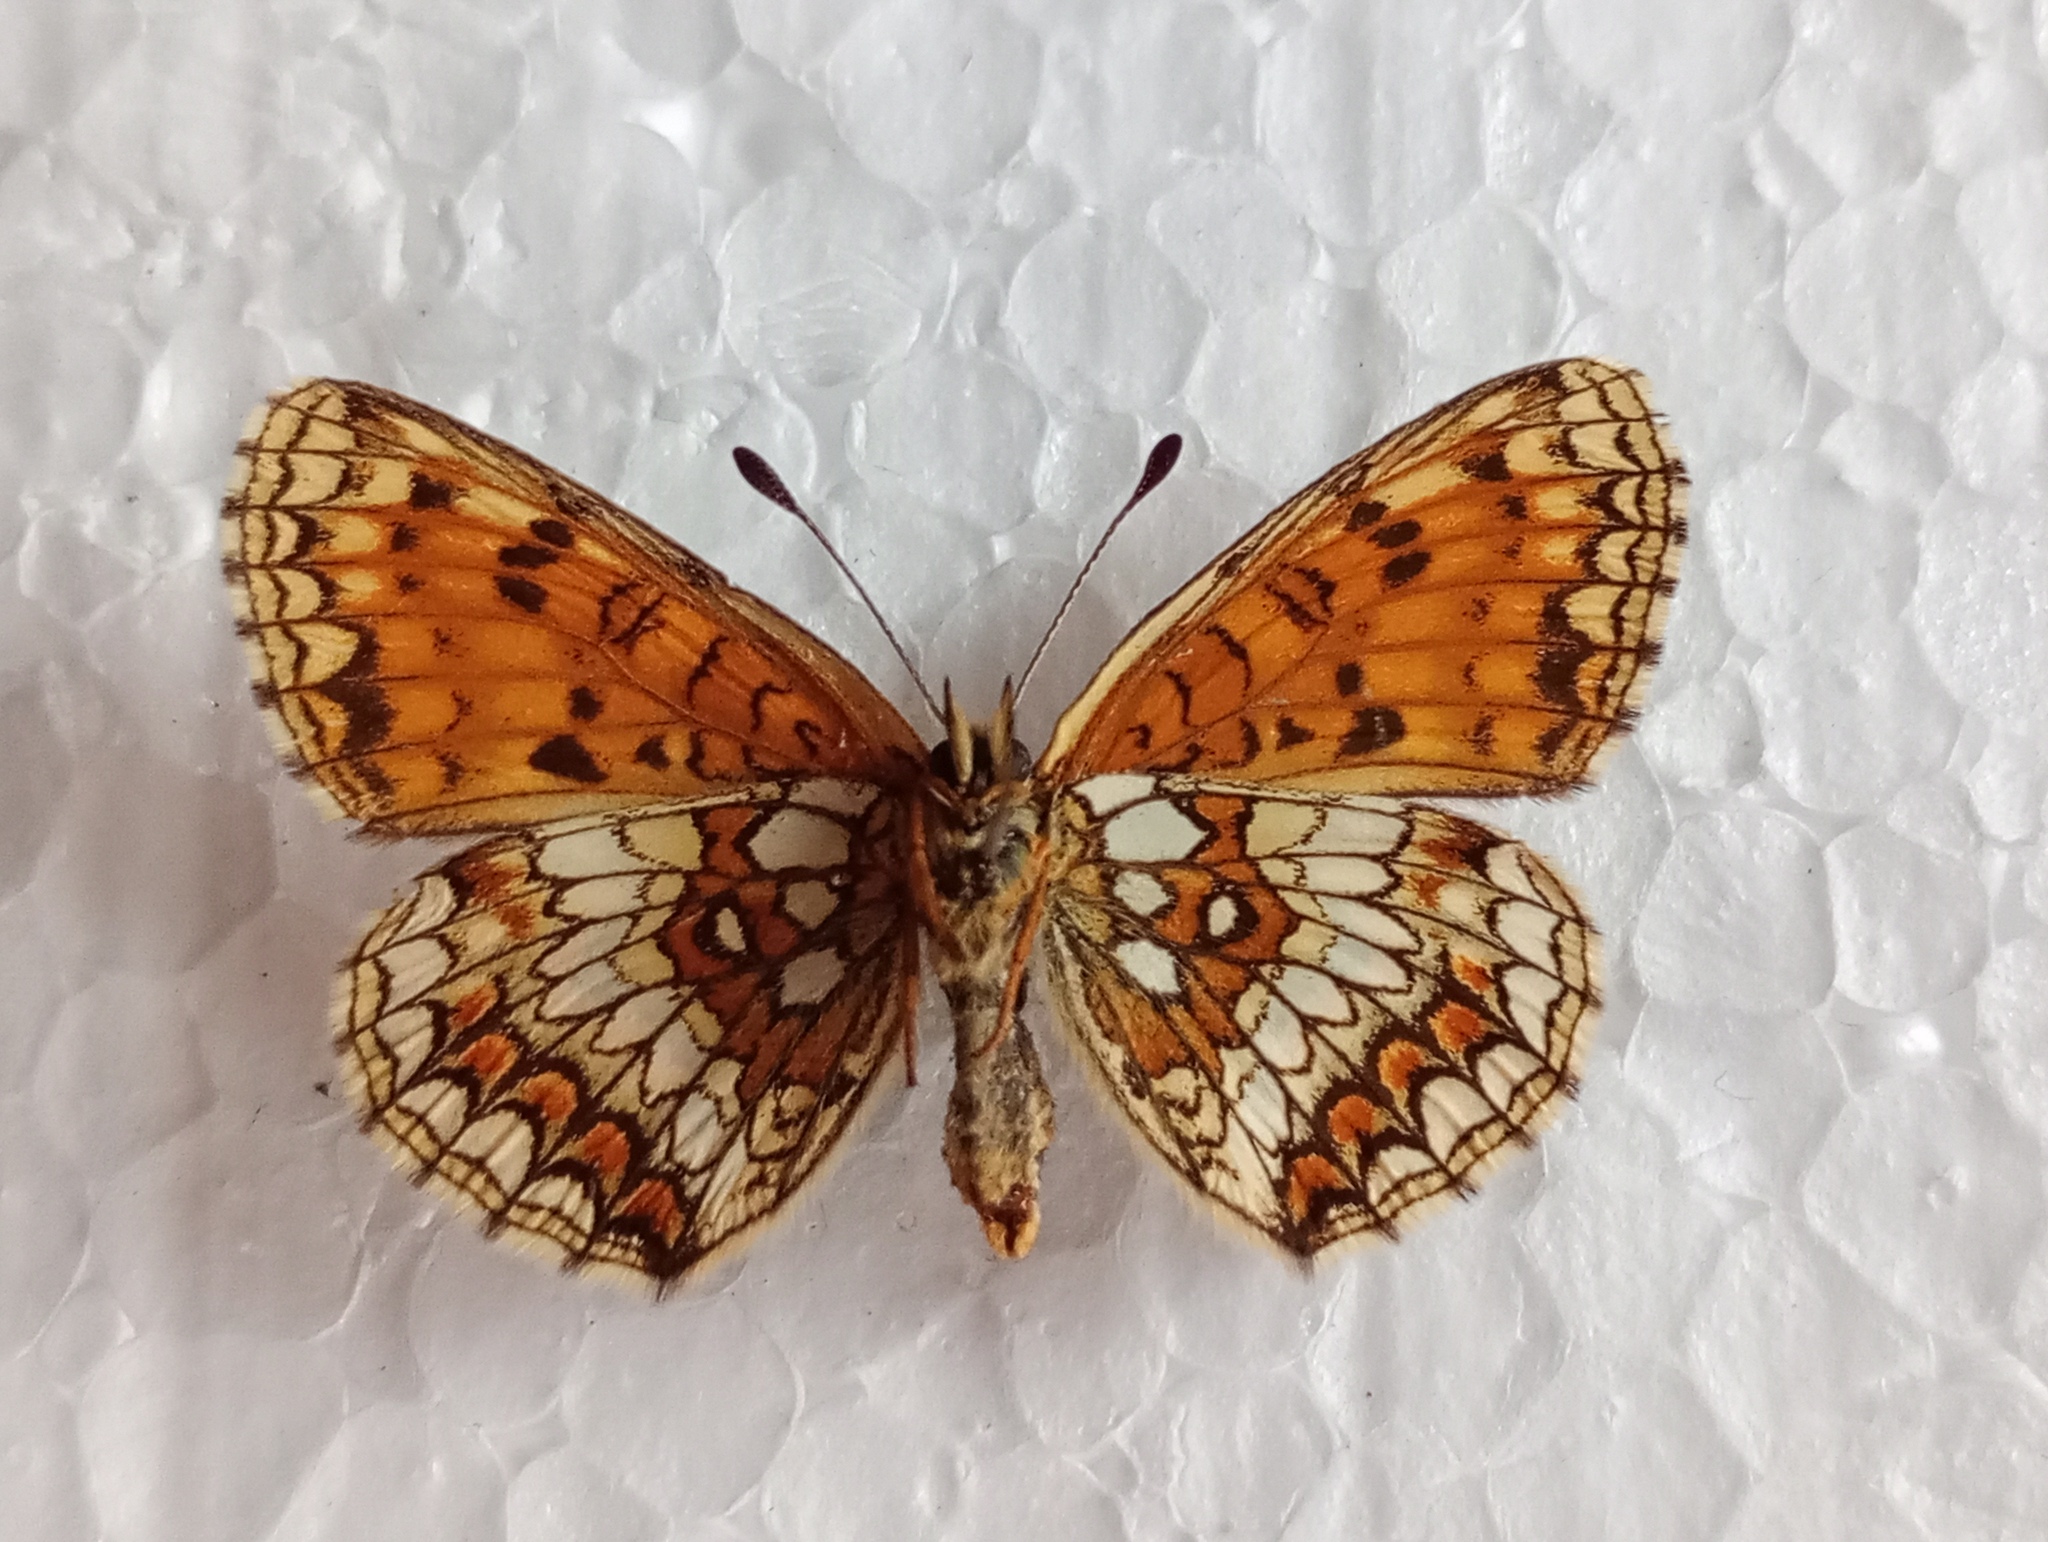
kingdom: Animalia
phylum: Arthropoda
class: Insecta
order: Lepidoptera
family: Nymphalidae
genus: Melitaea
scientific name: Melitaea athalia
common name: Heath fritillary
